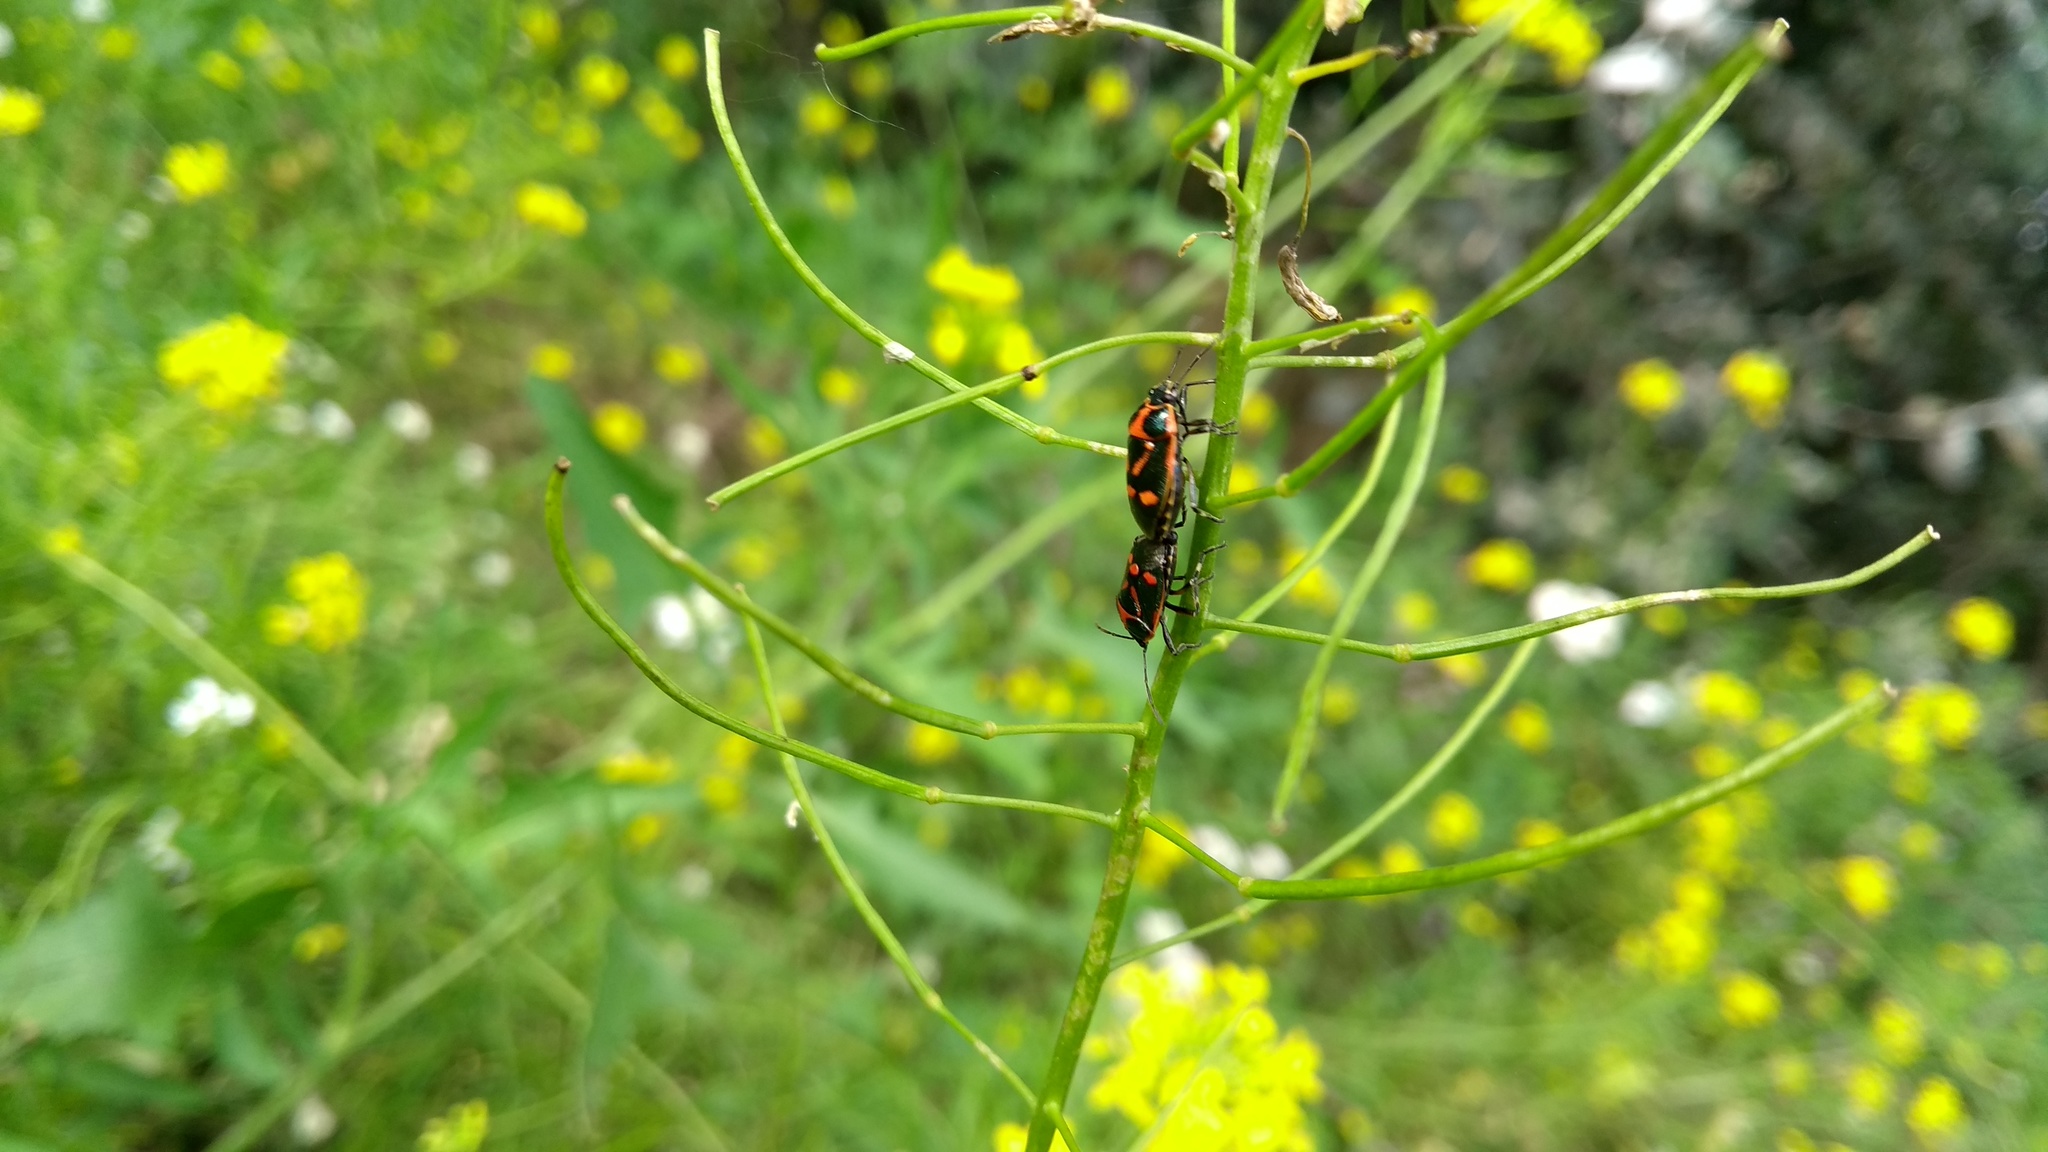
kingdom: Animalia
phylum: Arthropoda
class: Insecta
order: Hemiptera
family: Pentatomidae
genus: Eurydema
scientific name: Eurydema oleracea
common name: Cabbage bug
